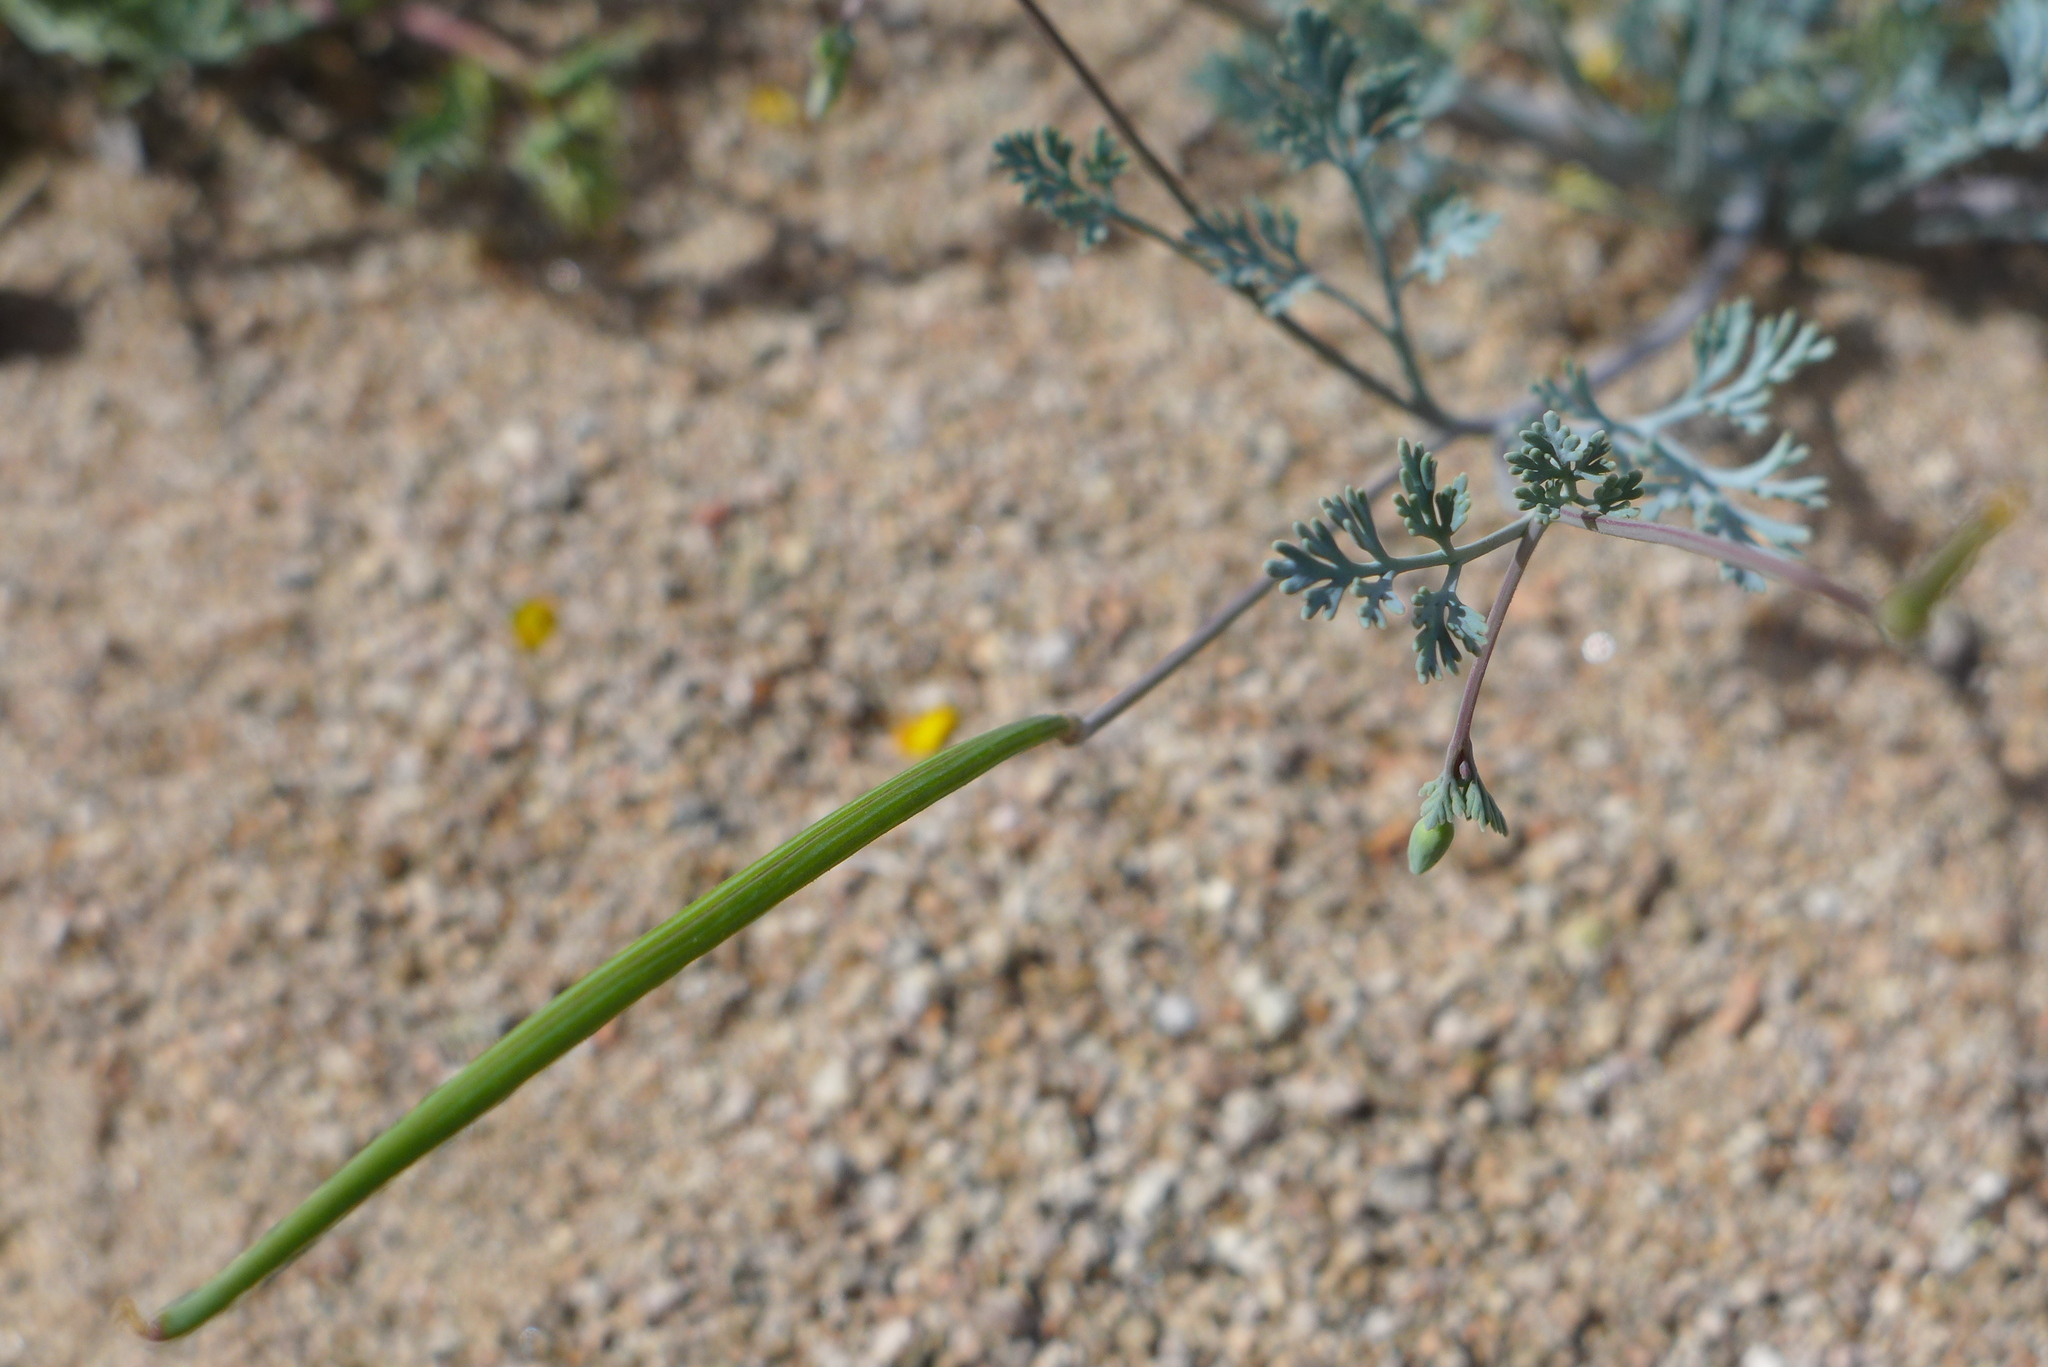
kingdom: Plantae
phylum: Tracheophyta
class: Magnoliopsida
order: Ranunculales
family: Papaveraceae
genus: Eschscholzia
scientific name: Eschscholzia minutiflora
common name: Small-flower california-poppy
